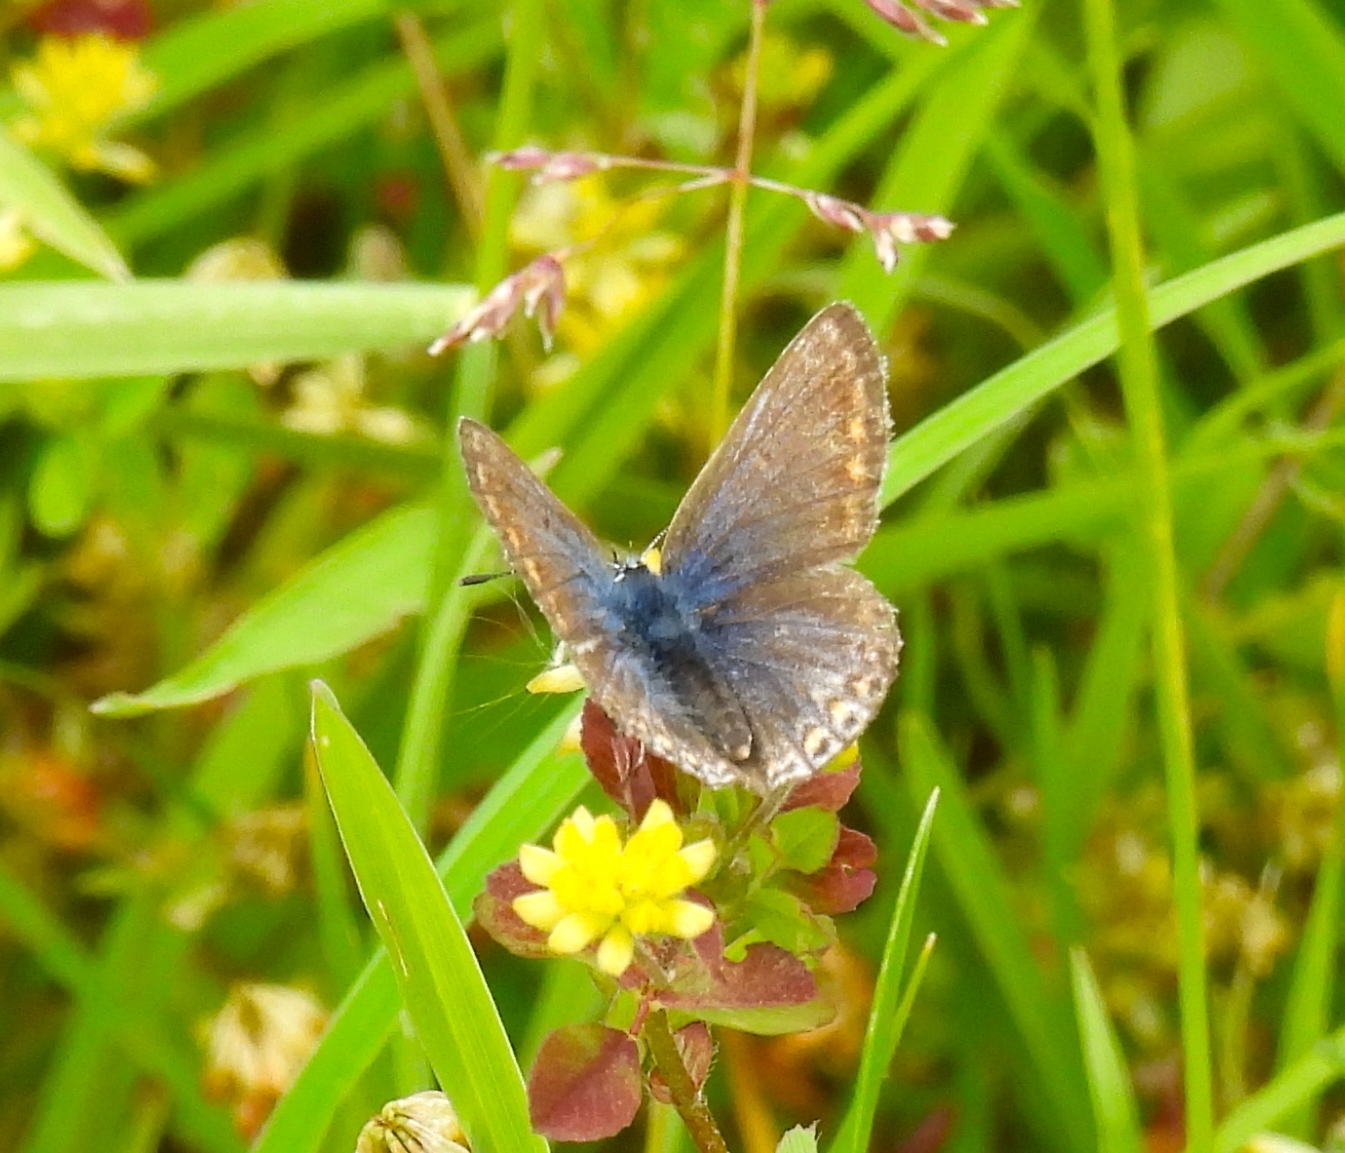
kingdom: Animalia
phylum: Arthropoda
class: Insecta
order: Lepidoptera
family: Lycaenidae
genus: Polyommatus
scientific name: Polyommatus icarus
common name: Common blue
